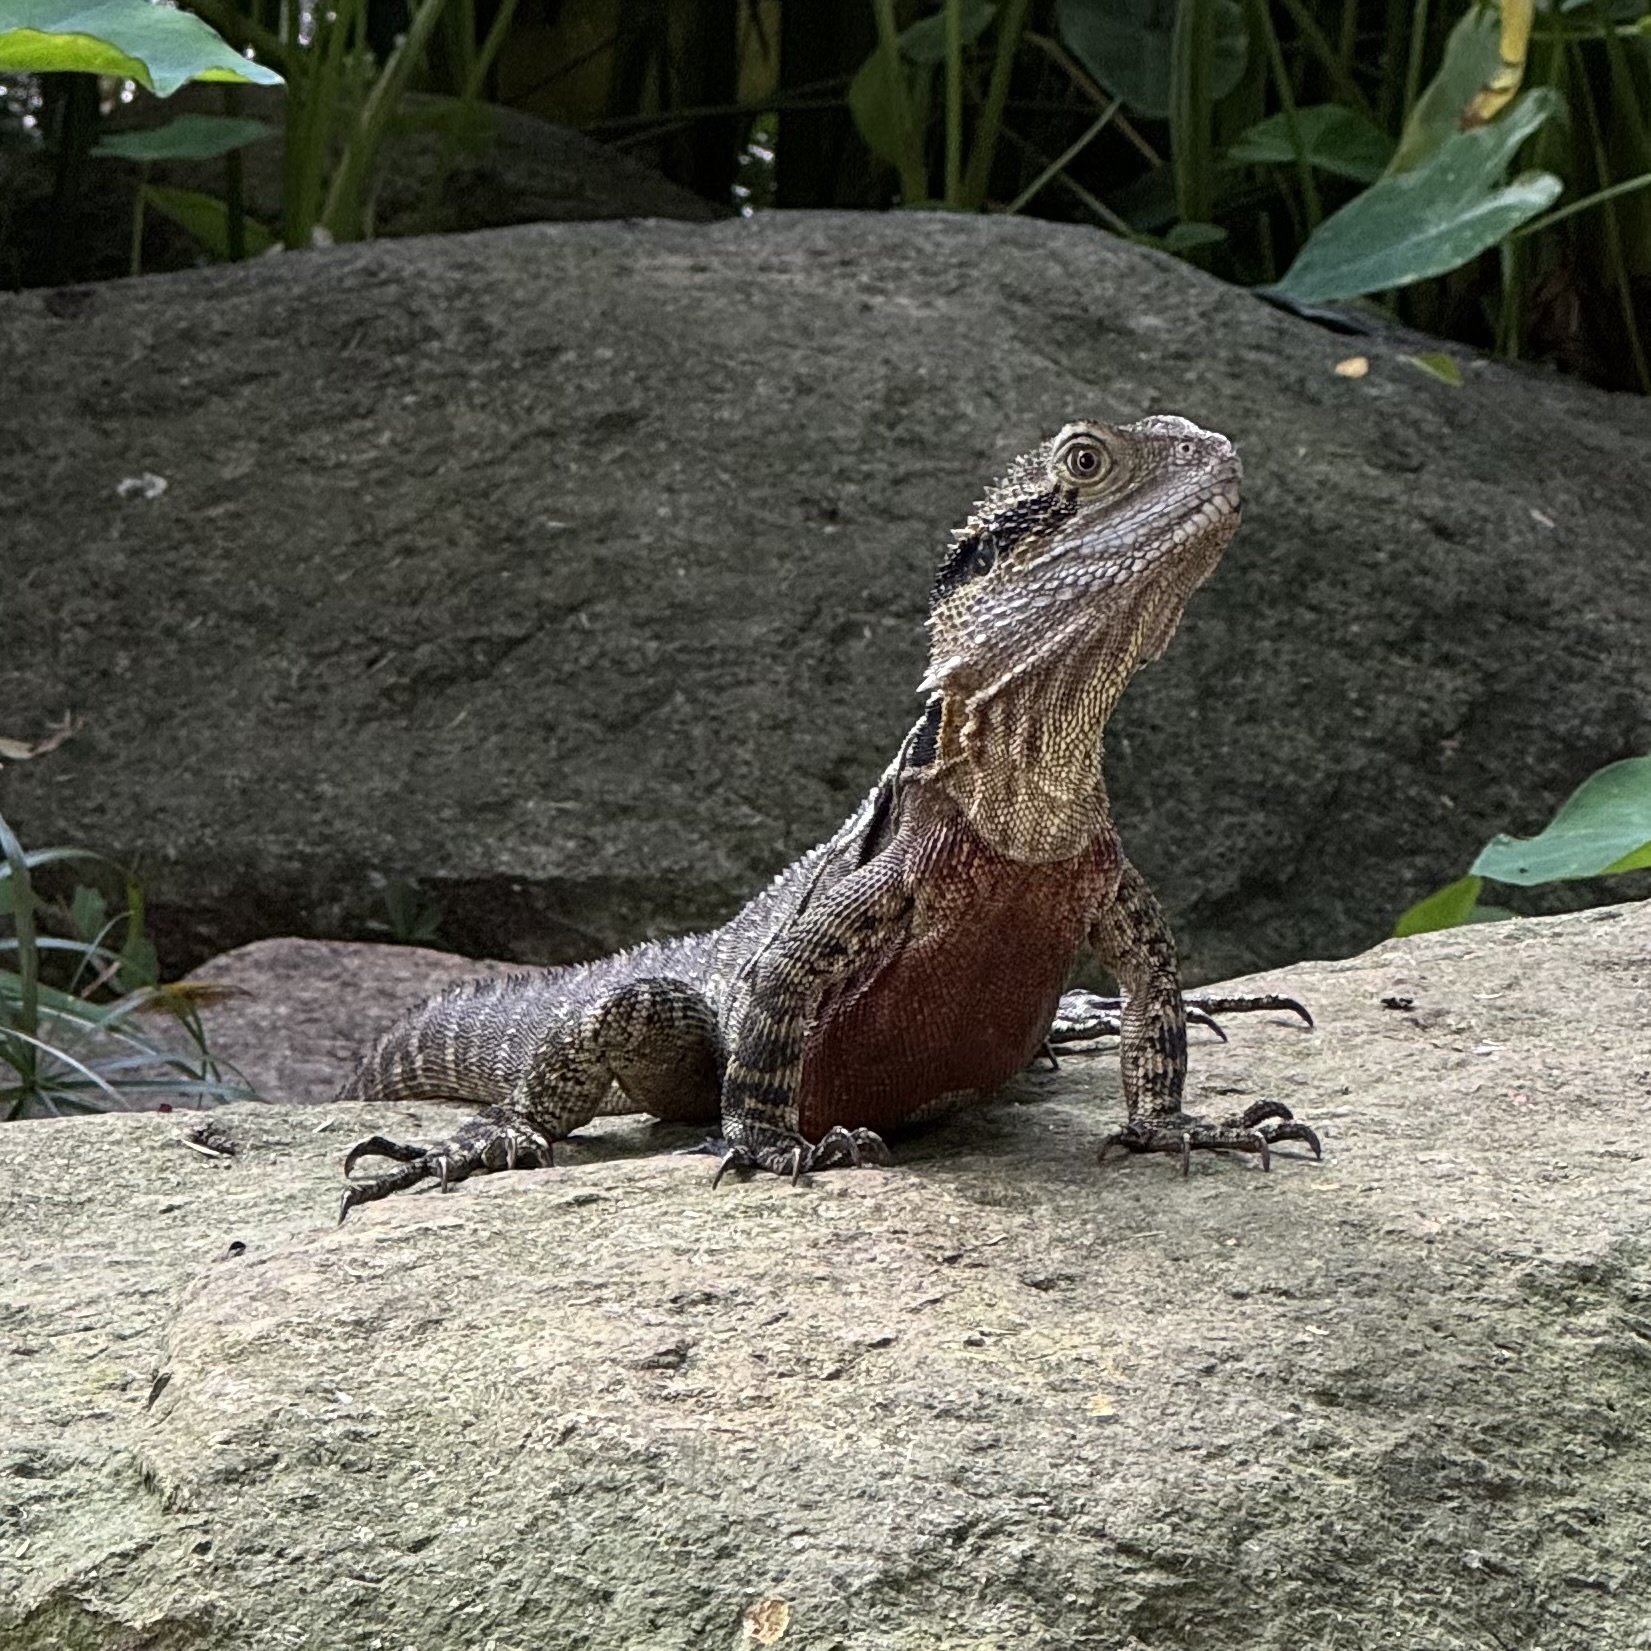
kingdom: Animalia
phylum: Chordata
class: Squamata
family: Agamidae
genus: Intellagama
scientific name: Intellagama lesueurii
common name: Eastern water dragon
